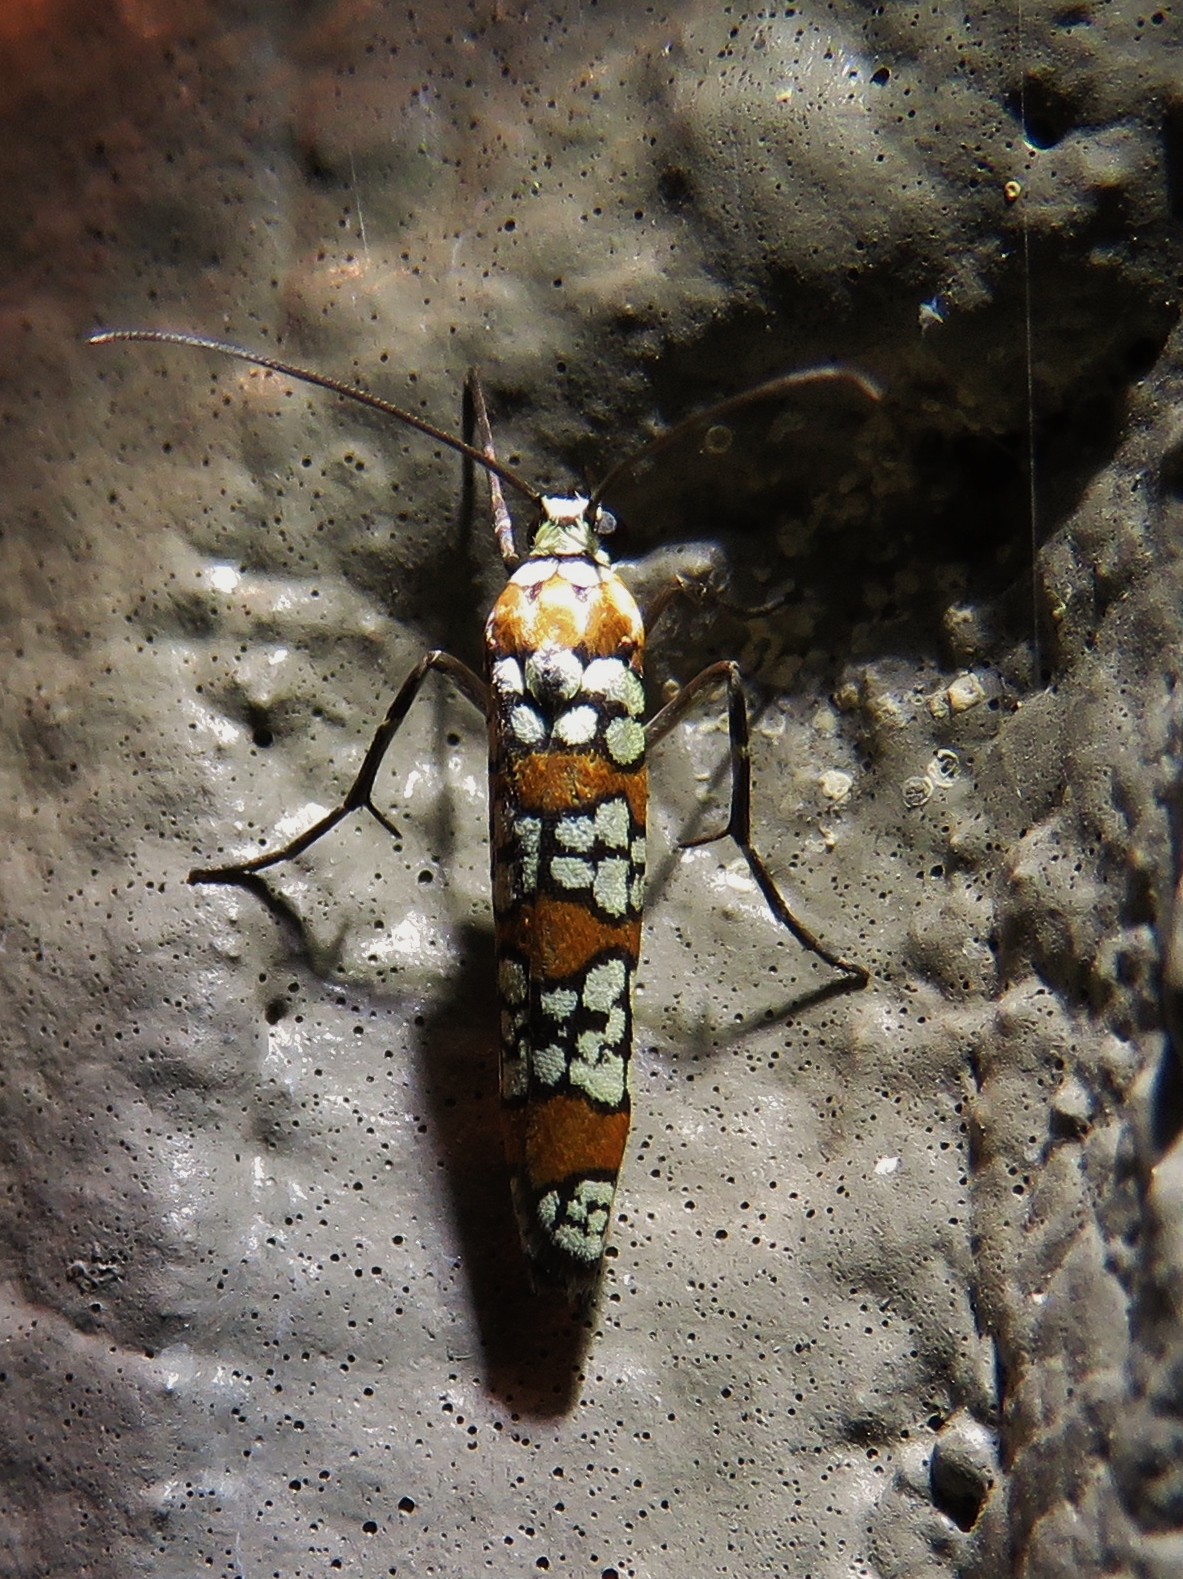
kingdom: Animalia
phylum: Arthropoda
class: Insecta
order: Lepidoptera
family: Attevidae
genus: Atteva
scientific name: Atteva punctella
